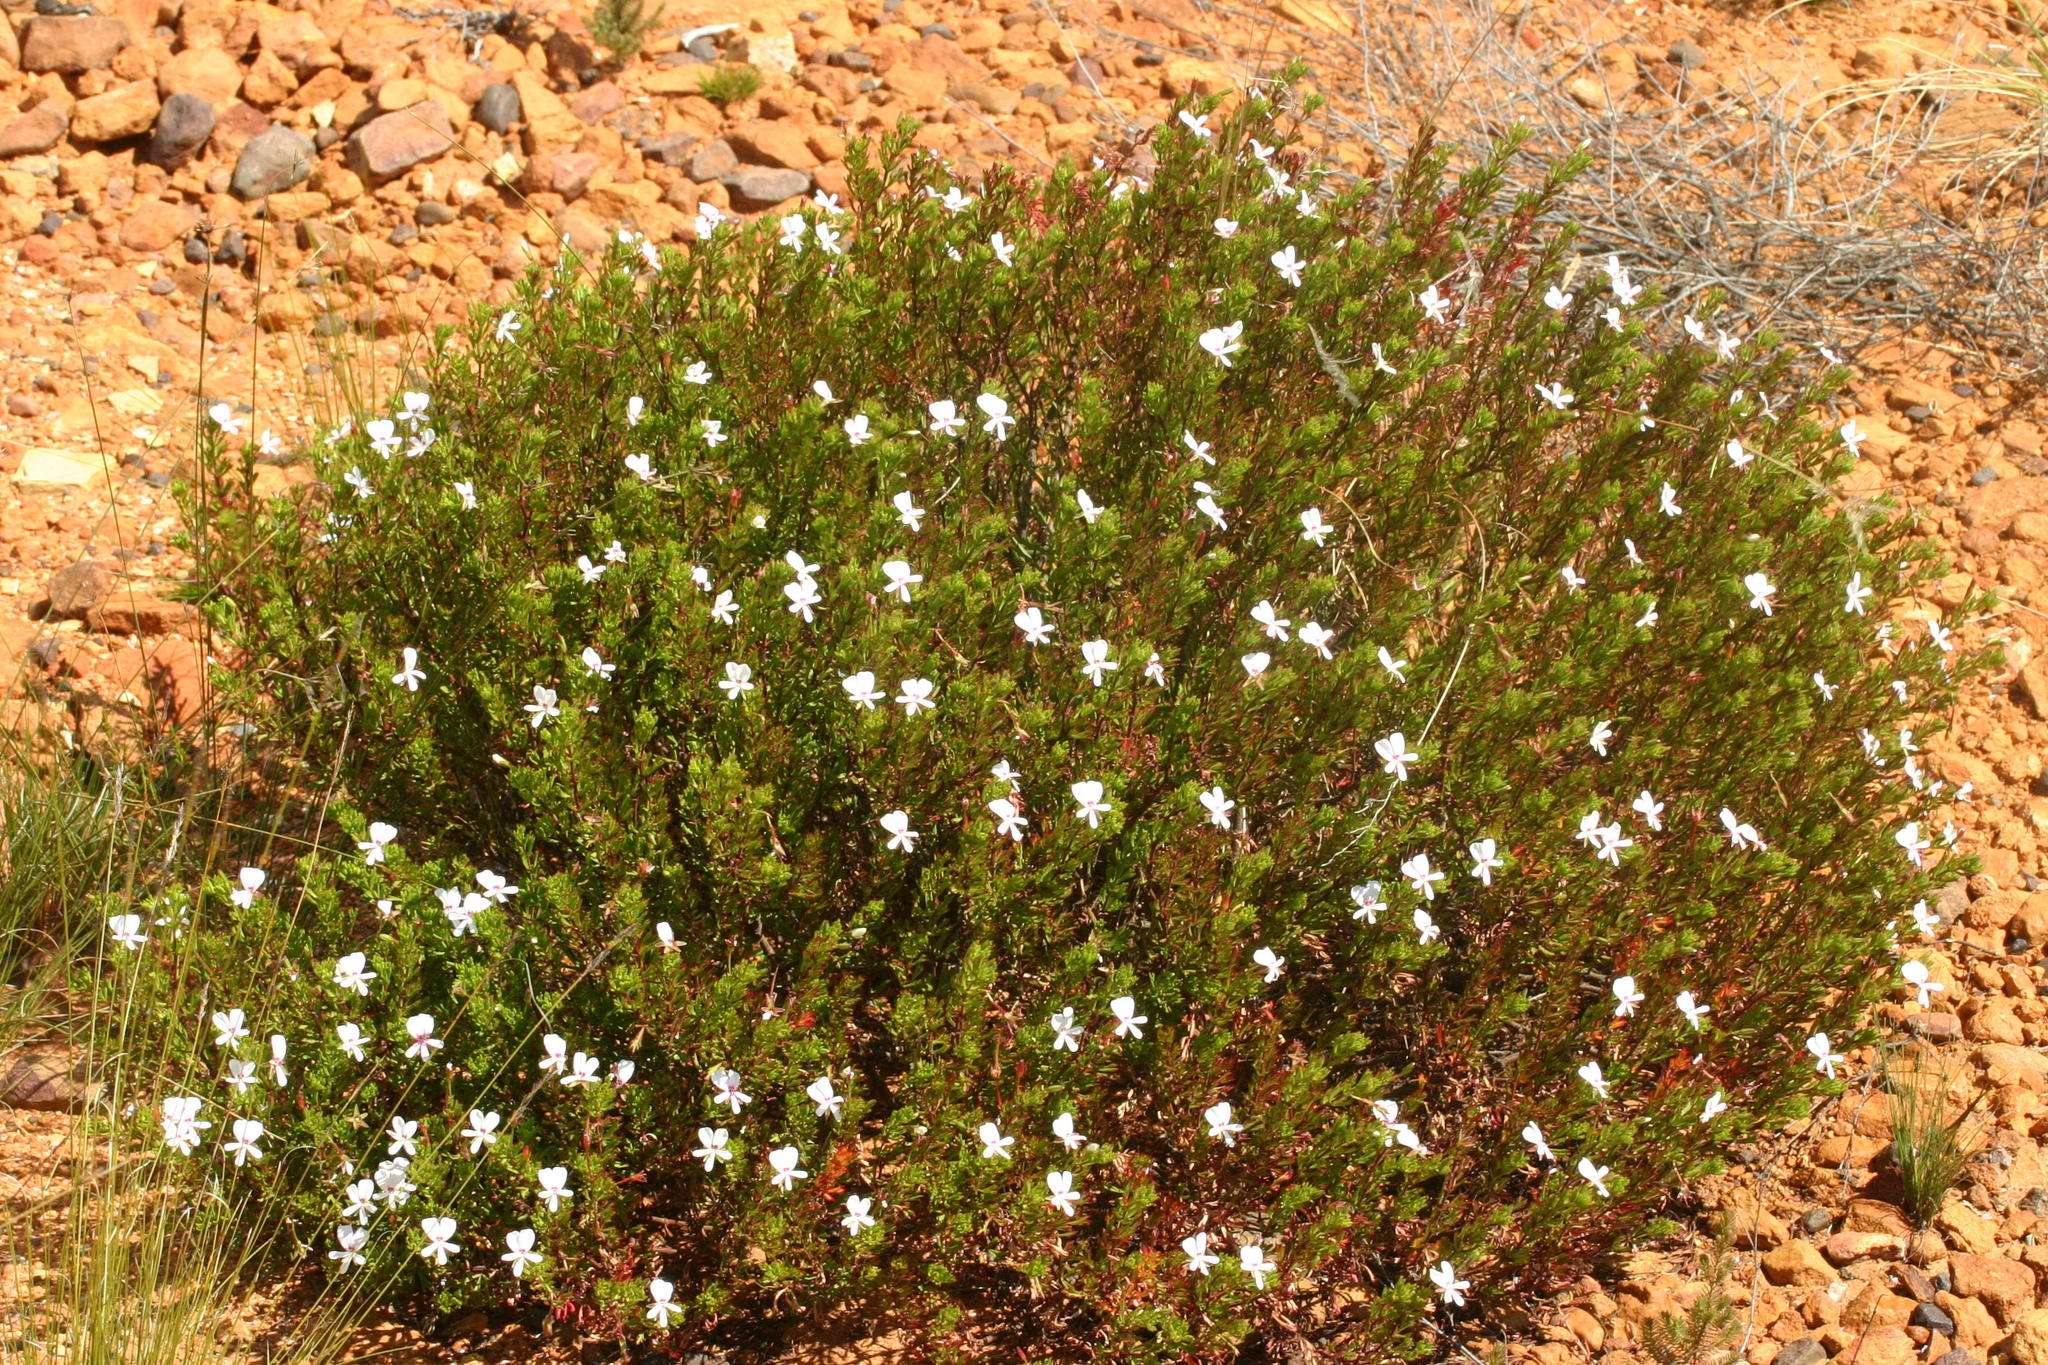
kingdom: Plantae
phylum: Tracheophyta
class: Magnoliopsida
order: Geraniales
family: Geraniaceae
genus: Pelargonium
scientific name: Pelargonium ternatum
